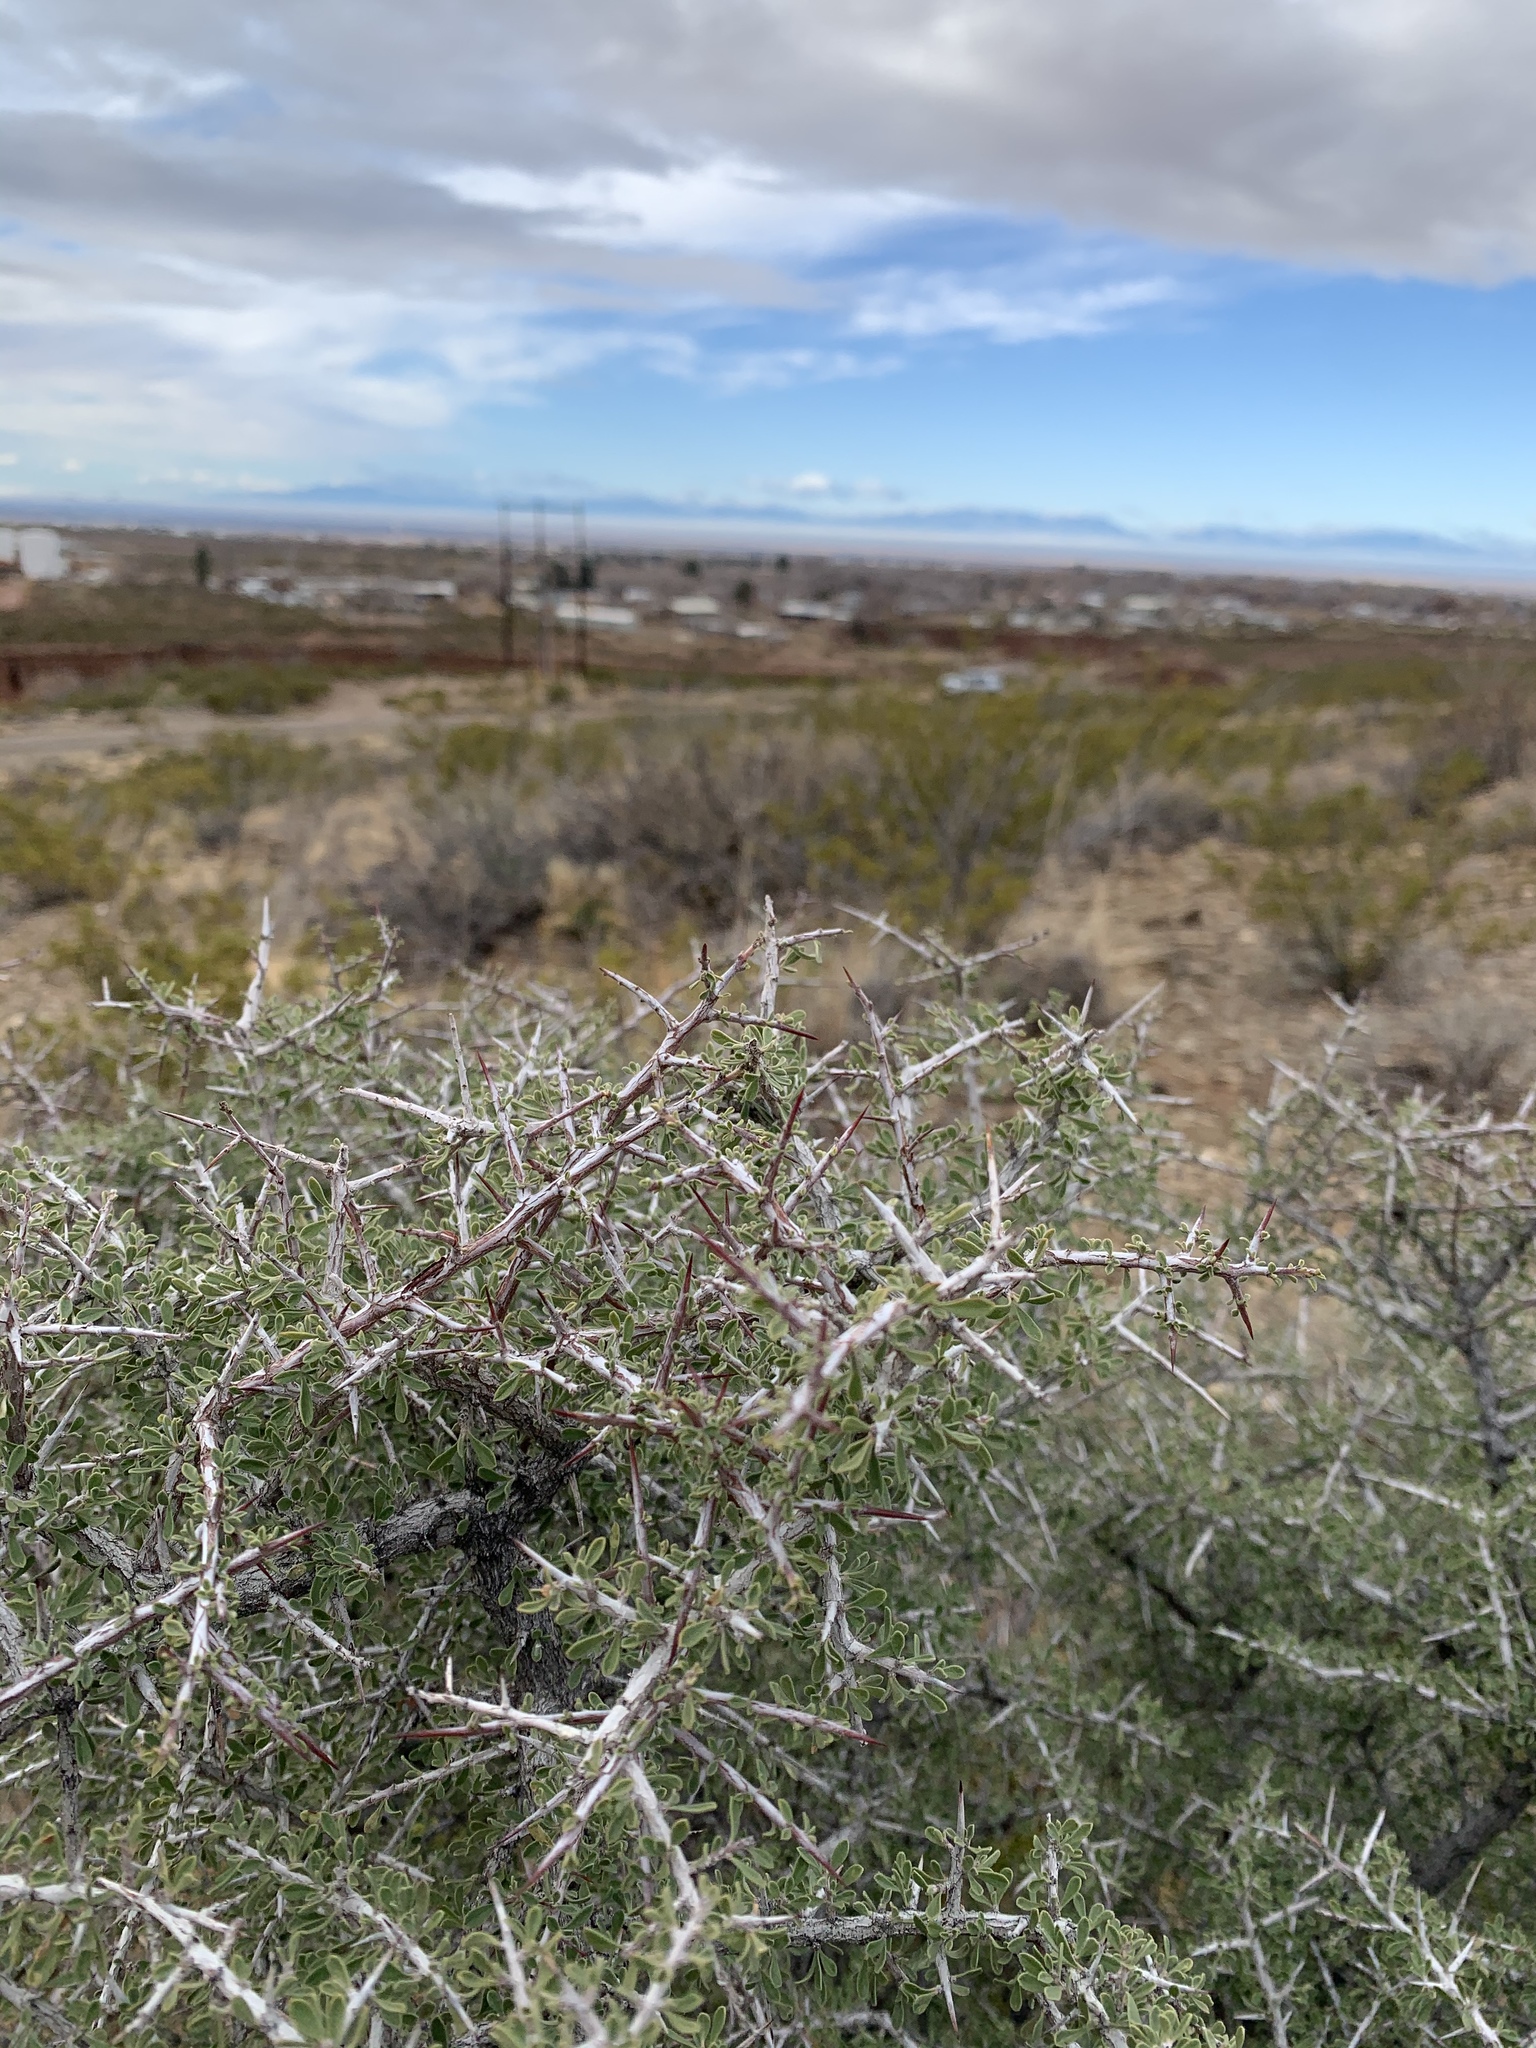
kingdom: Plantae
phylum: Tracheophyta
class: Magnoliopsida
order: Rosales
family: Rhamnaceae
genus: Condalia
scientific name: Condalia warnockii
